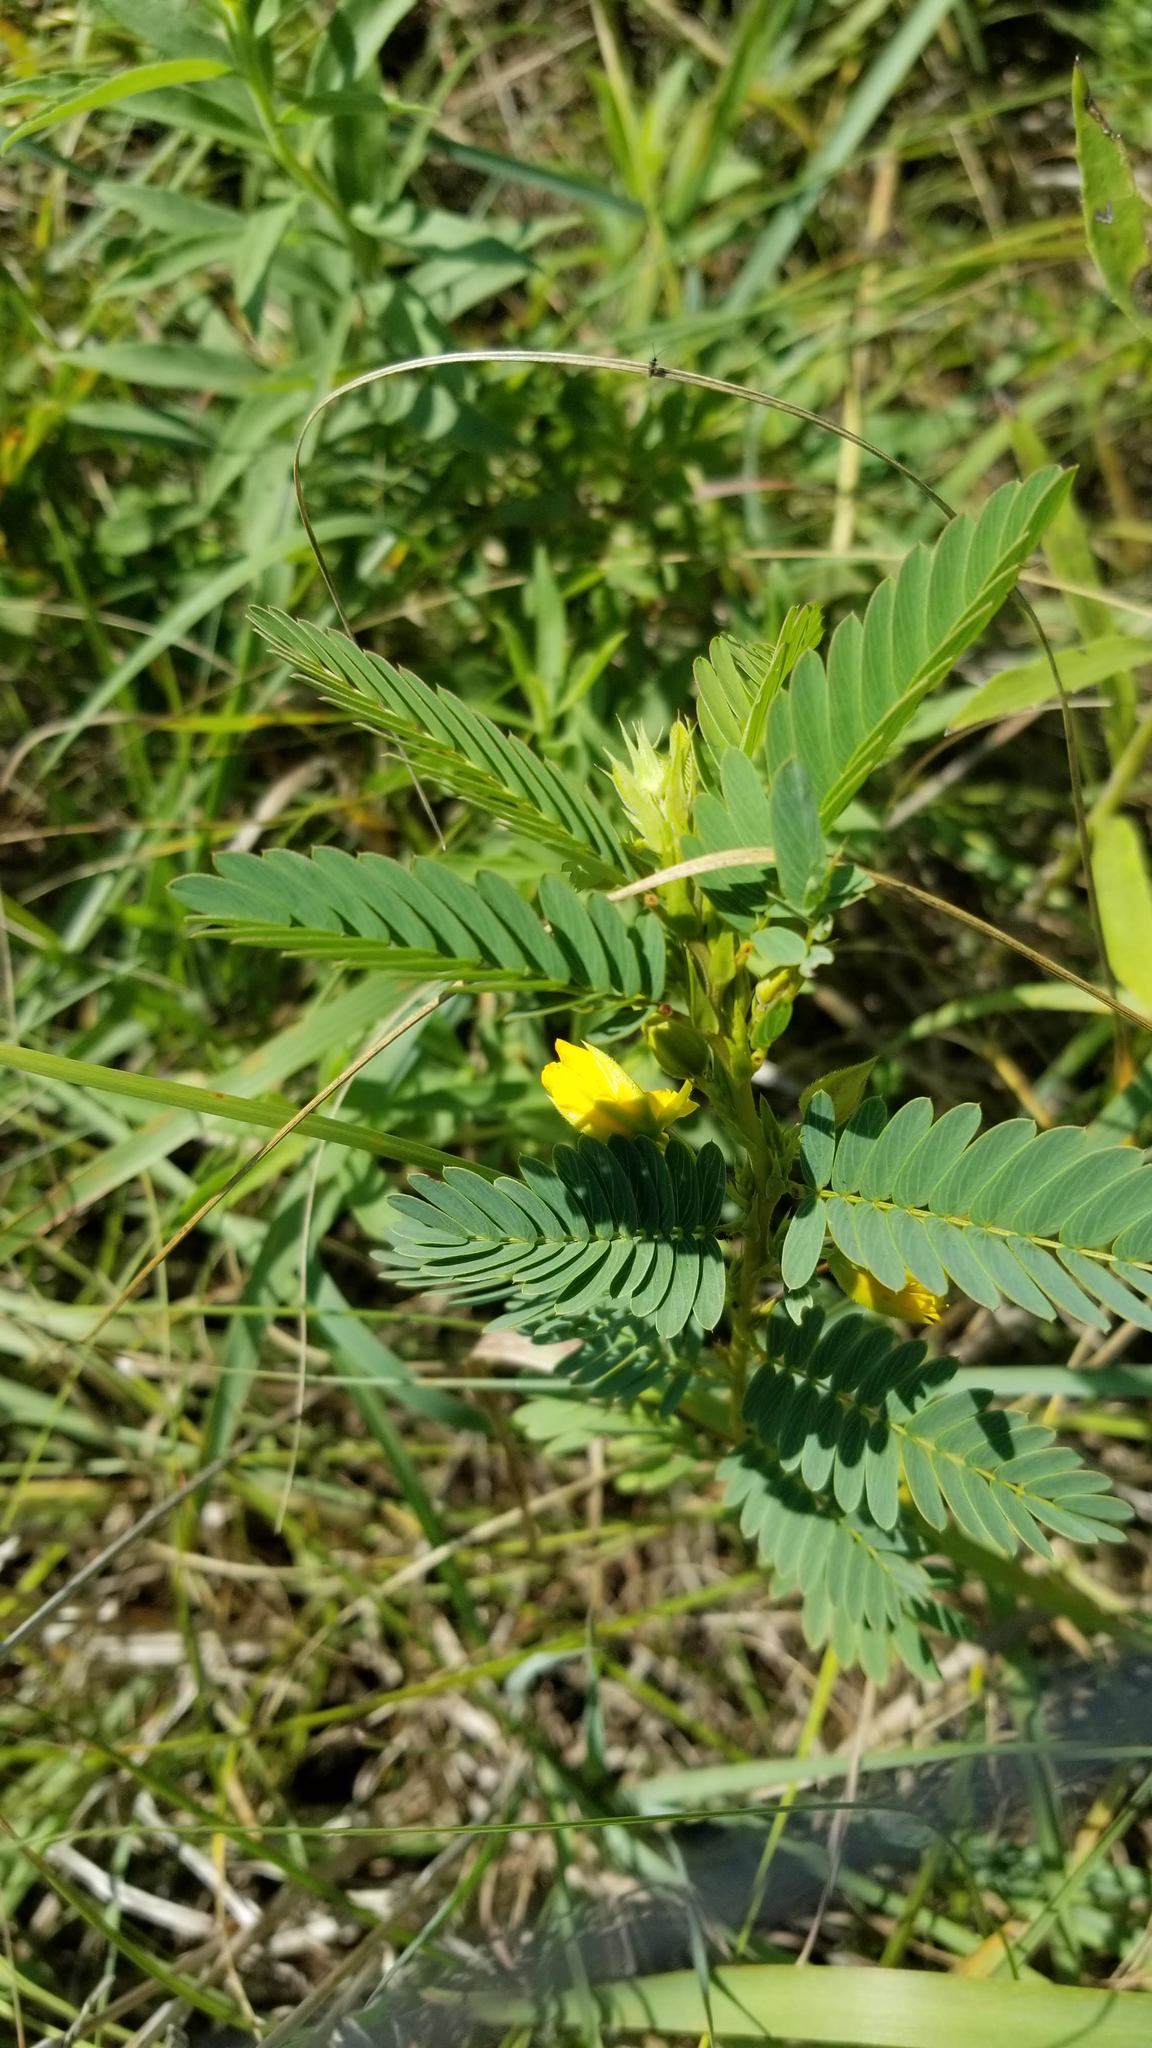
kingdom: Plantae
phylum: Tracheophyta
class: Magnoliopsida
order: Fabales
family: Fabaceae
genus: Chamaecrista
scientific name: Chamaecrista fasciculata
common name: Golden cassia
